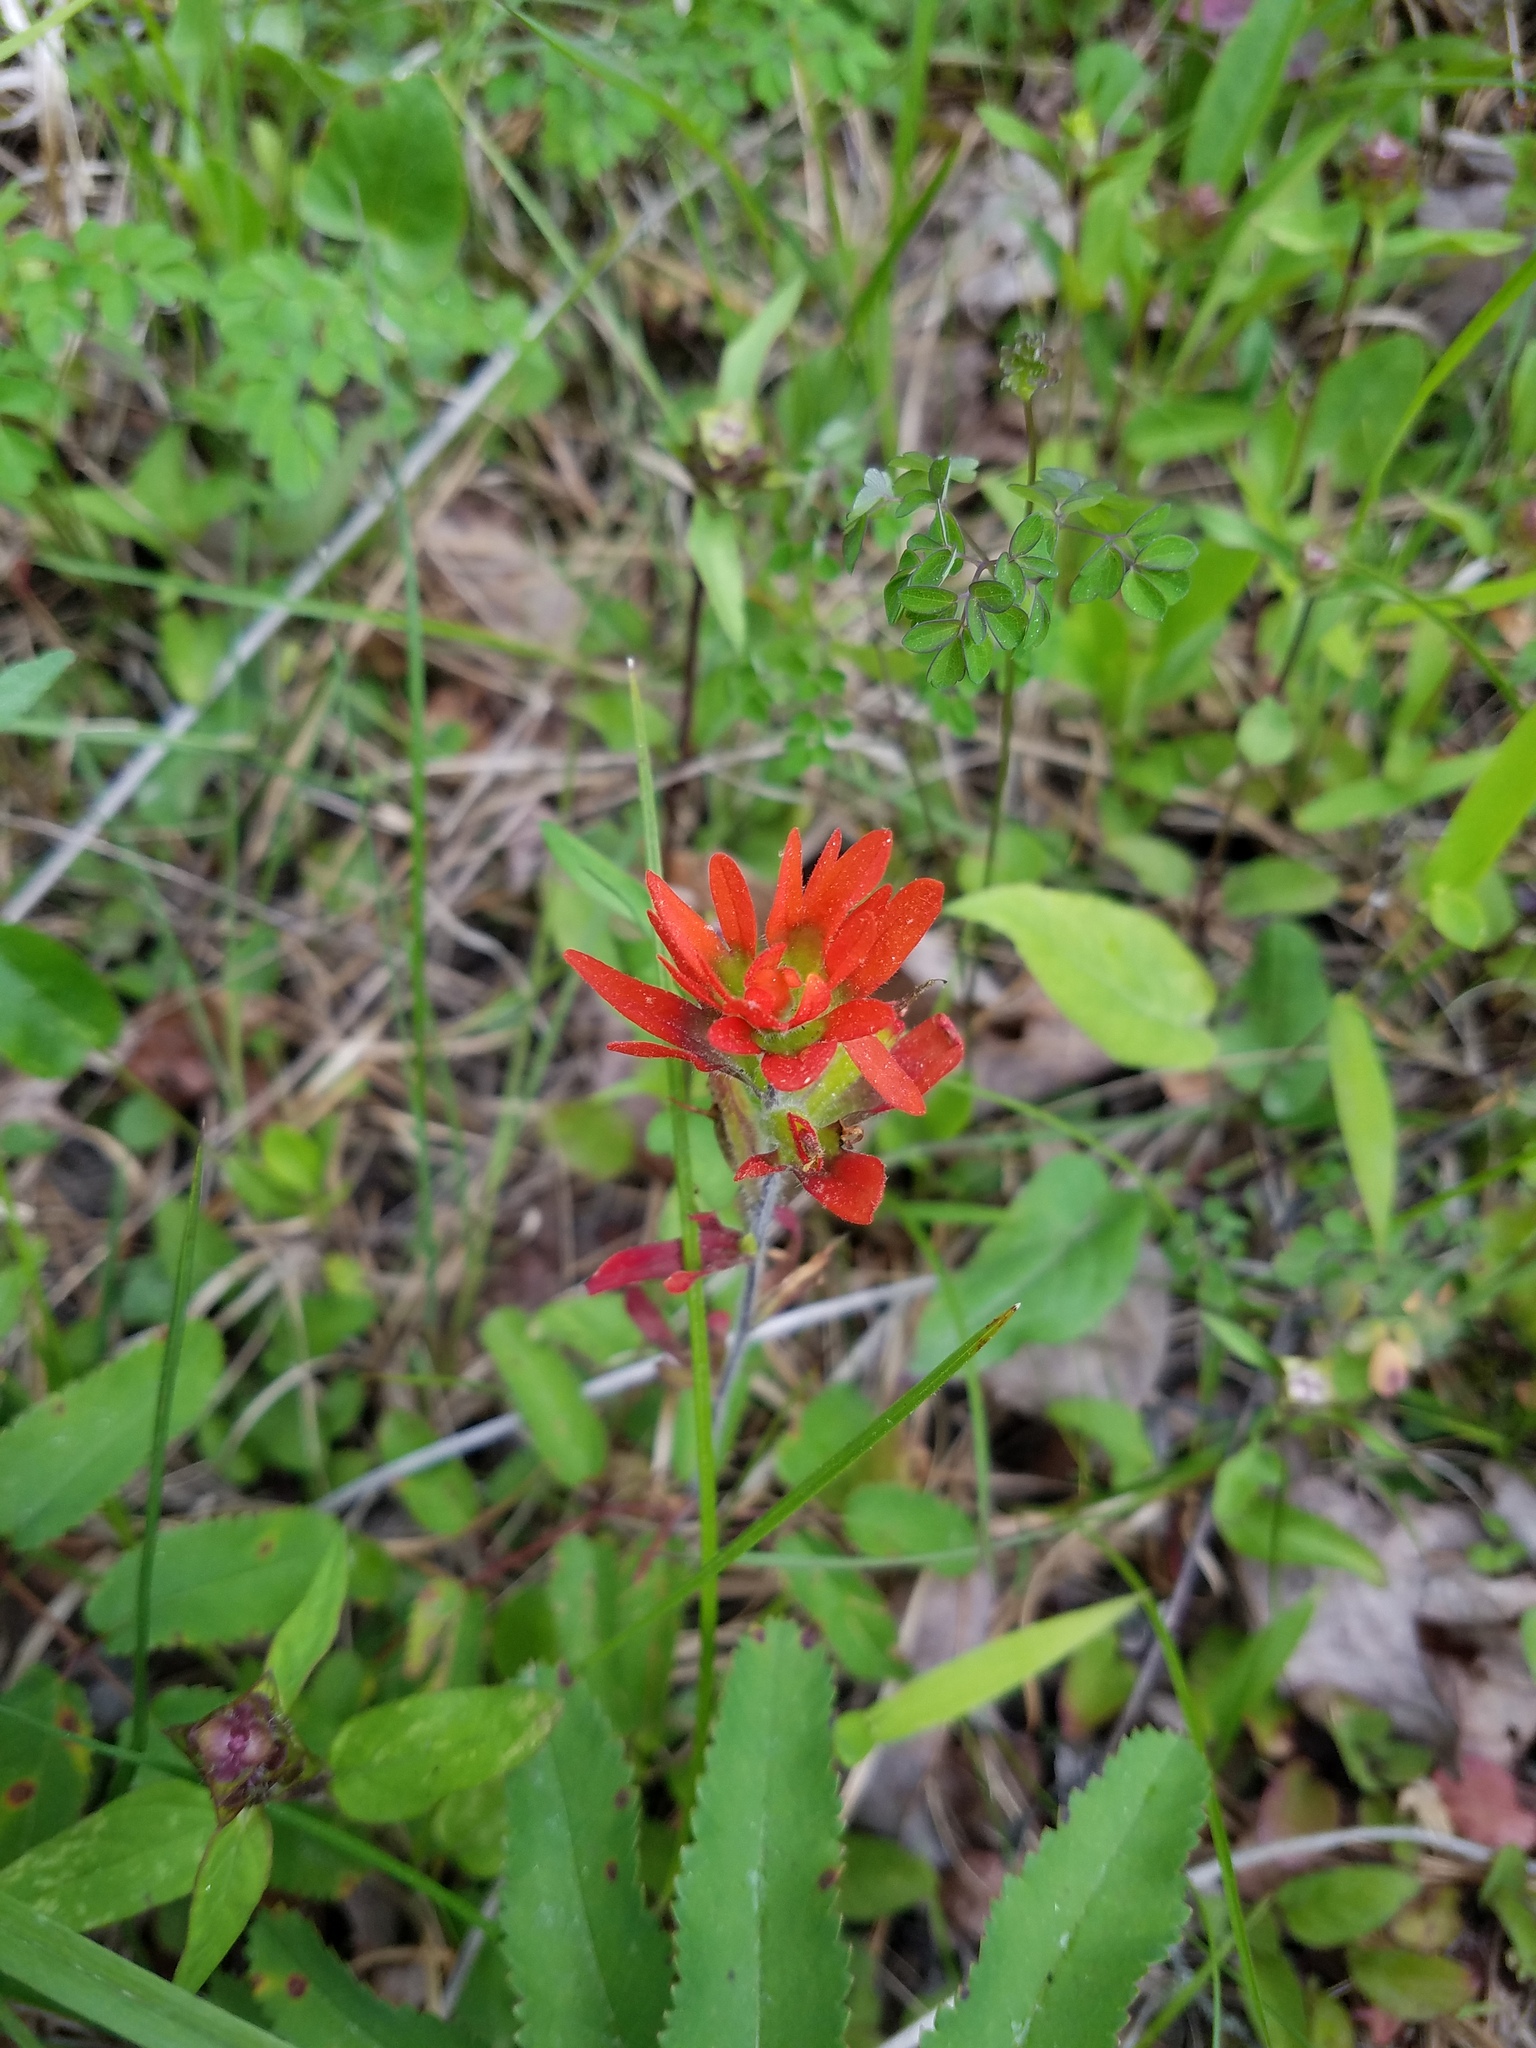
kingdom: Plantae
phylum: Tracheophyta
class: Magnoliopsida
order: Lamiales
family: Orobanchaceae
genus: Castilleja
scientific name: Castilleja coccinea
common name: Scarlet paintbrush
